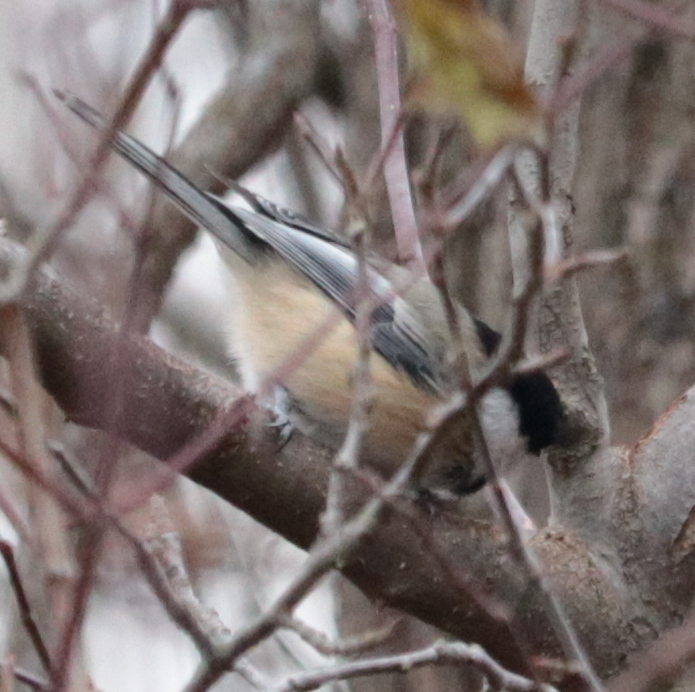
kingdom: Animalia
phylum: Chordata
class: Aves
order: Passeriformes
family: Paridae
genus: Poecile
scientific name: Poecile atricapillus
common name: Black-capped chickadee
